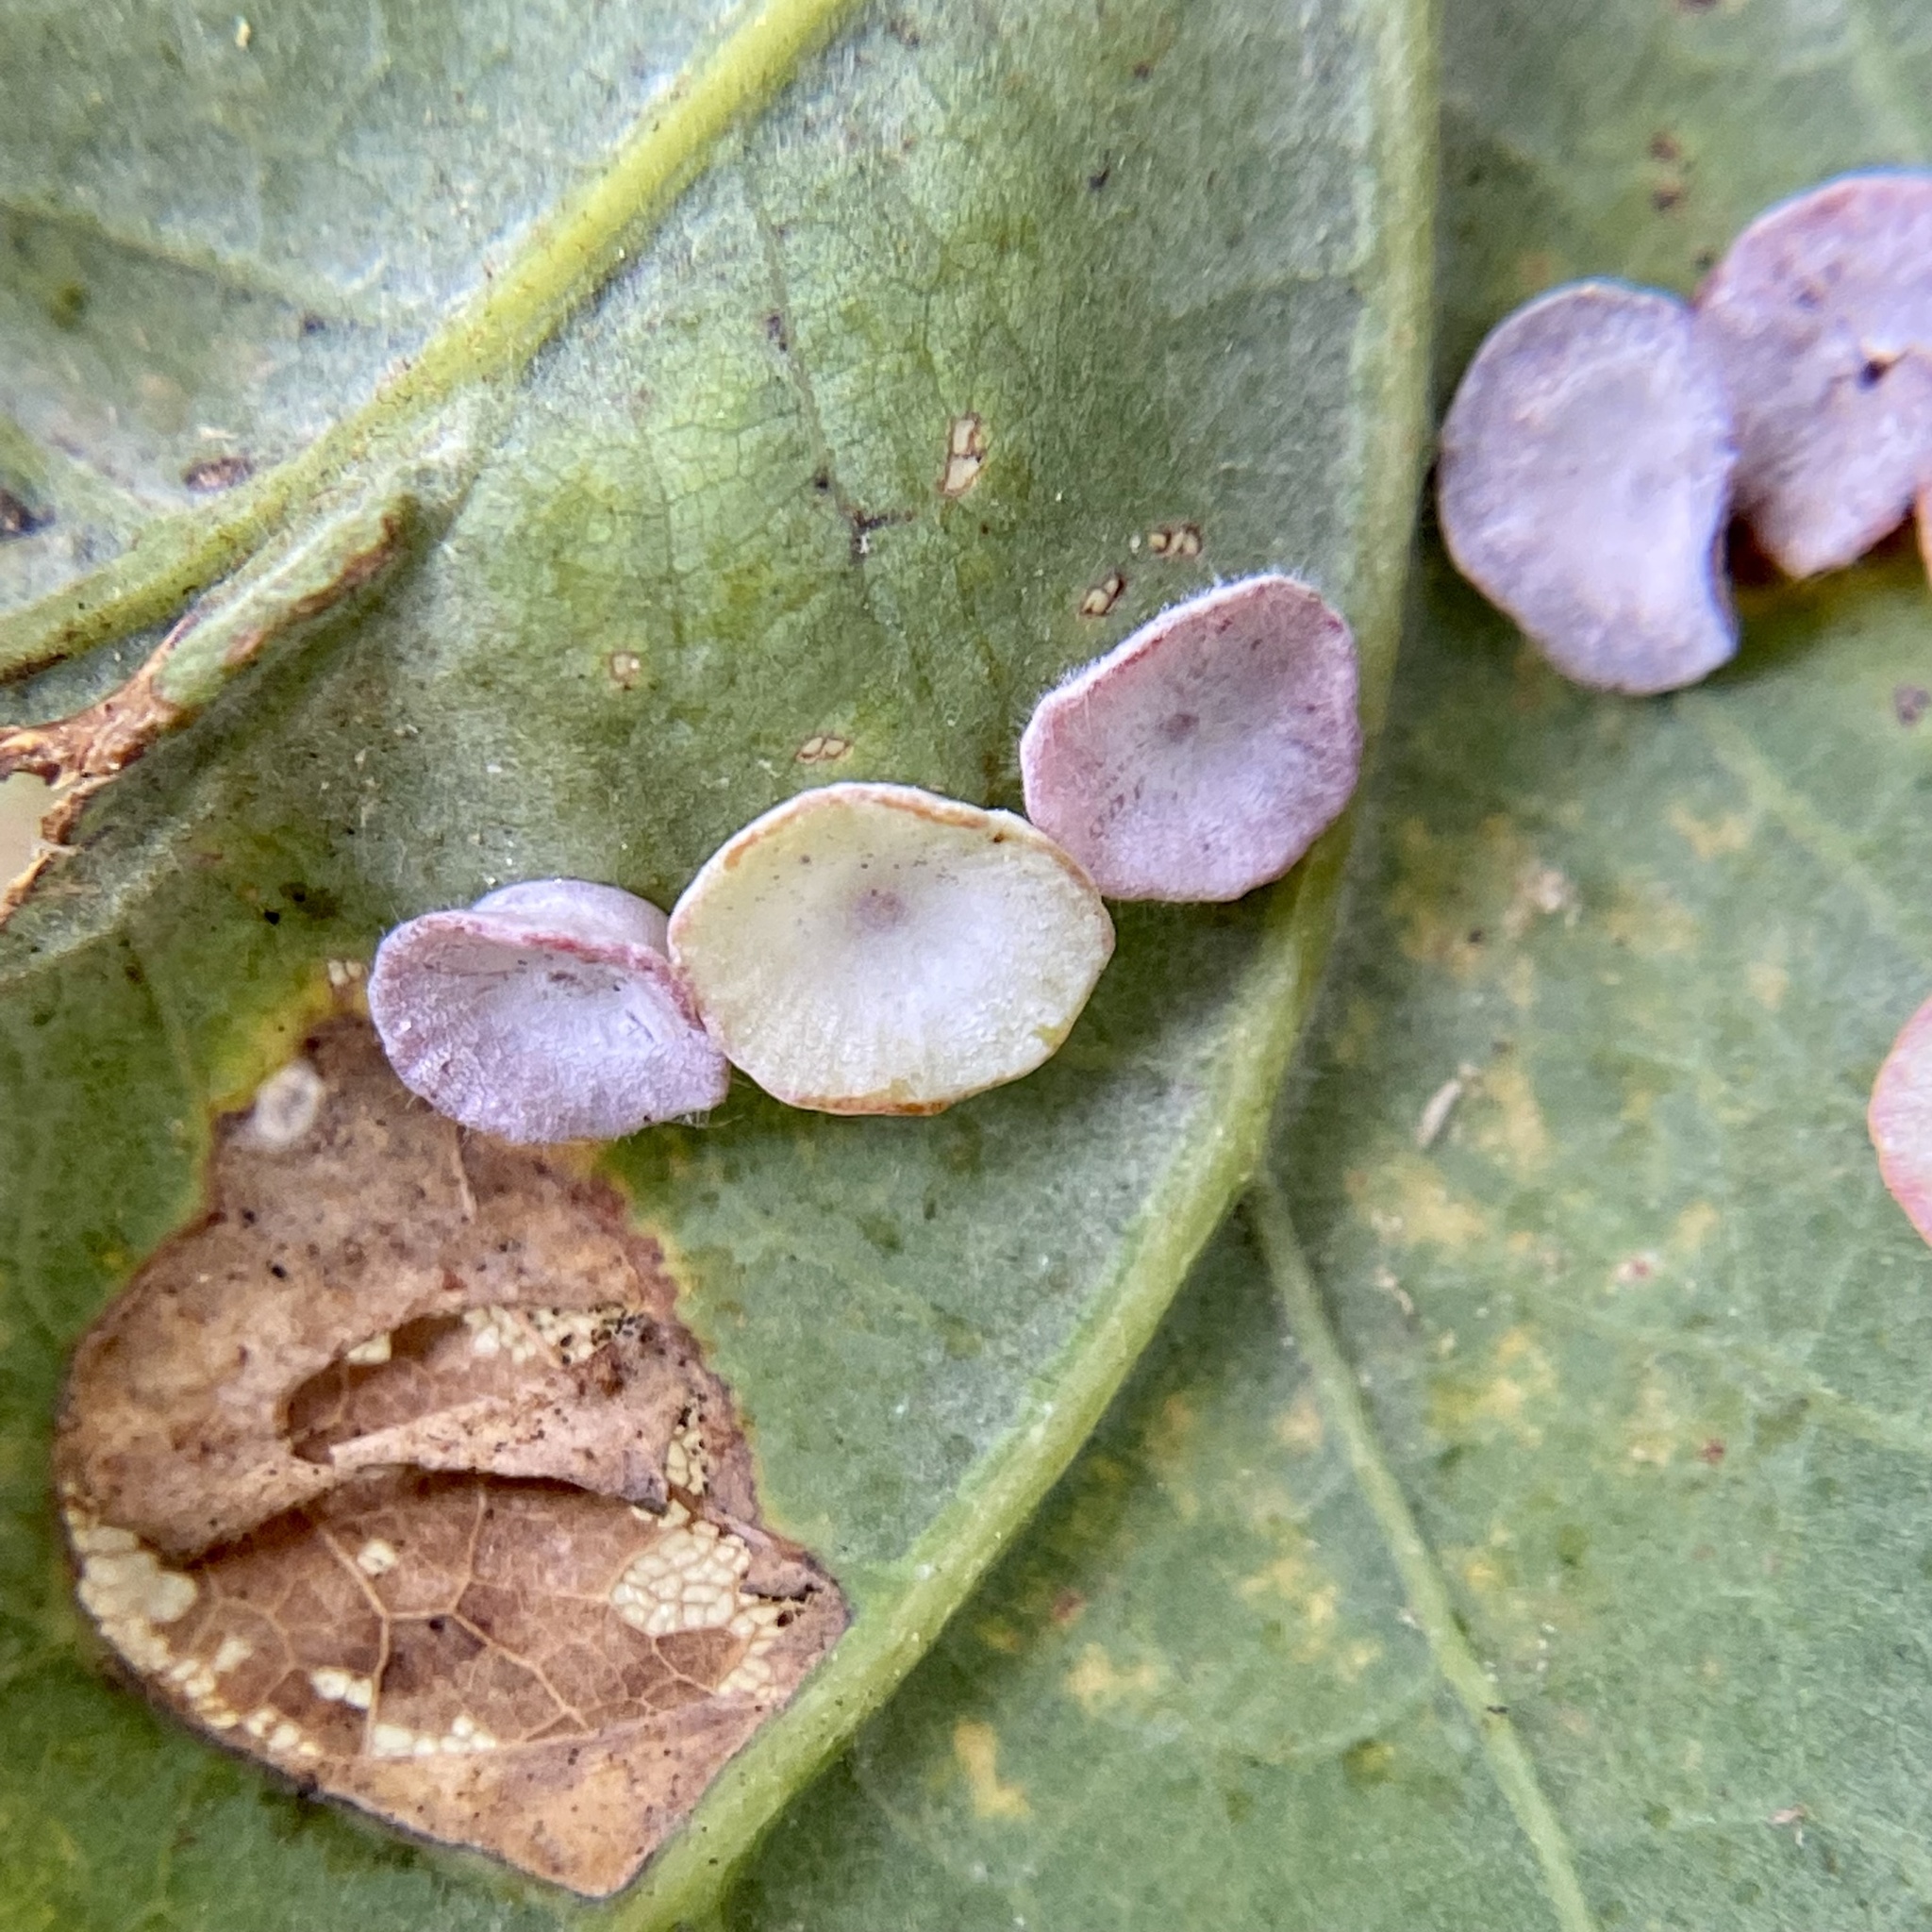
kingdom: Animalia
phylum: Arthropoda
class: Insecta
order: Hymenoptera
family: Cynipidae
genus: Phylloteras
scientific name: Phylloteras poculum
